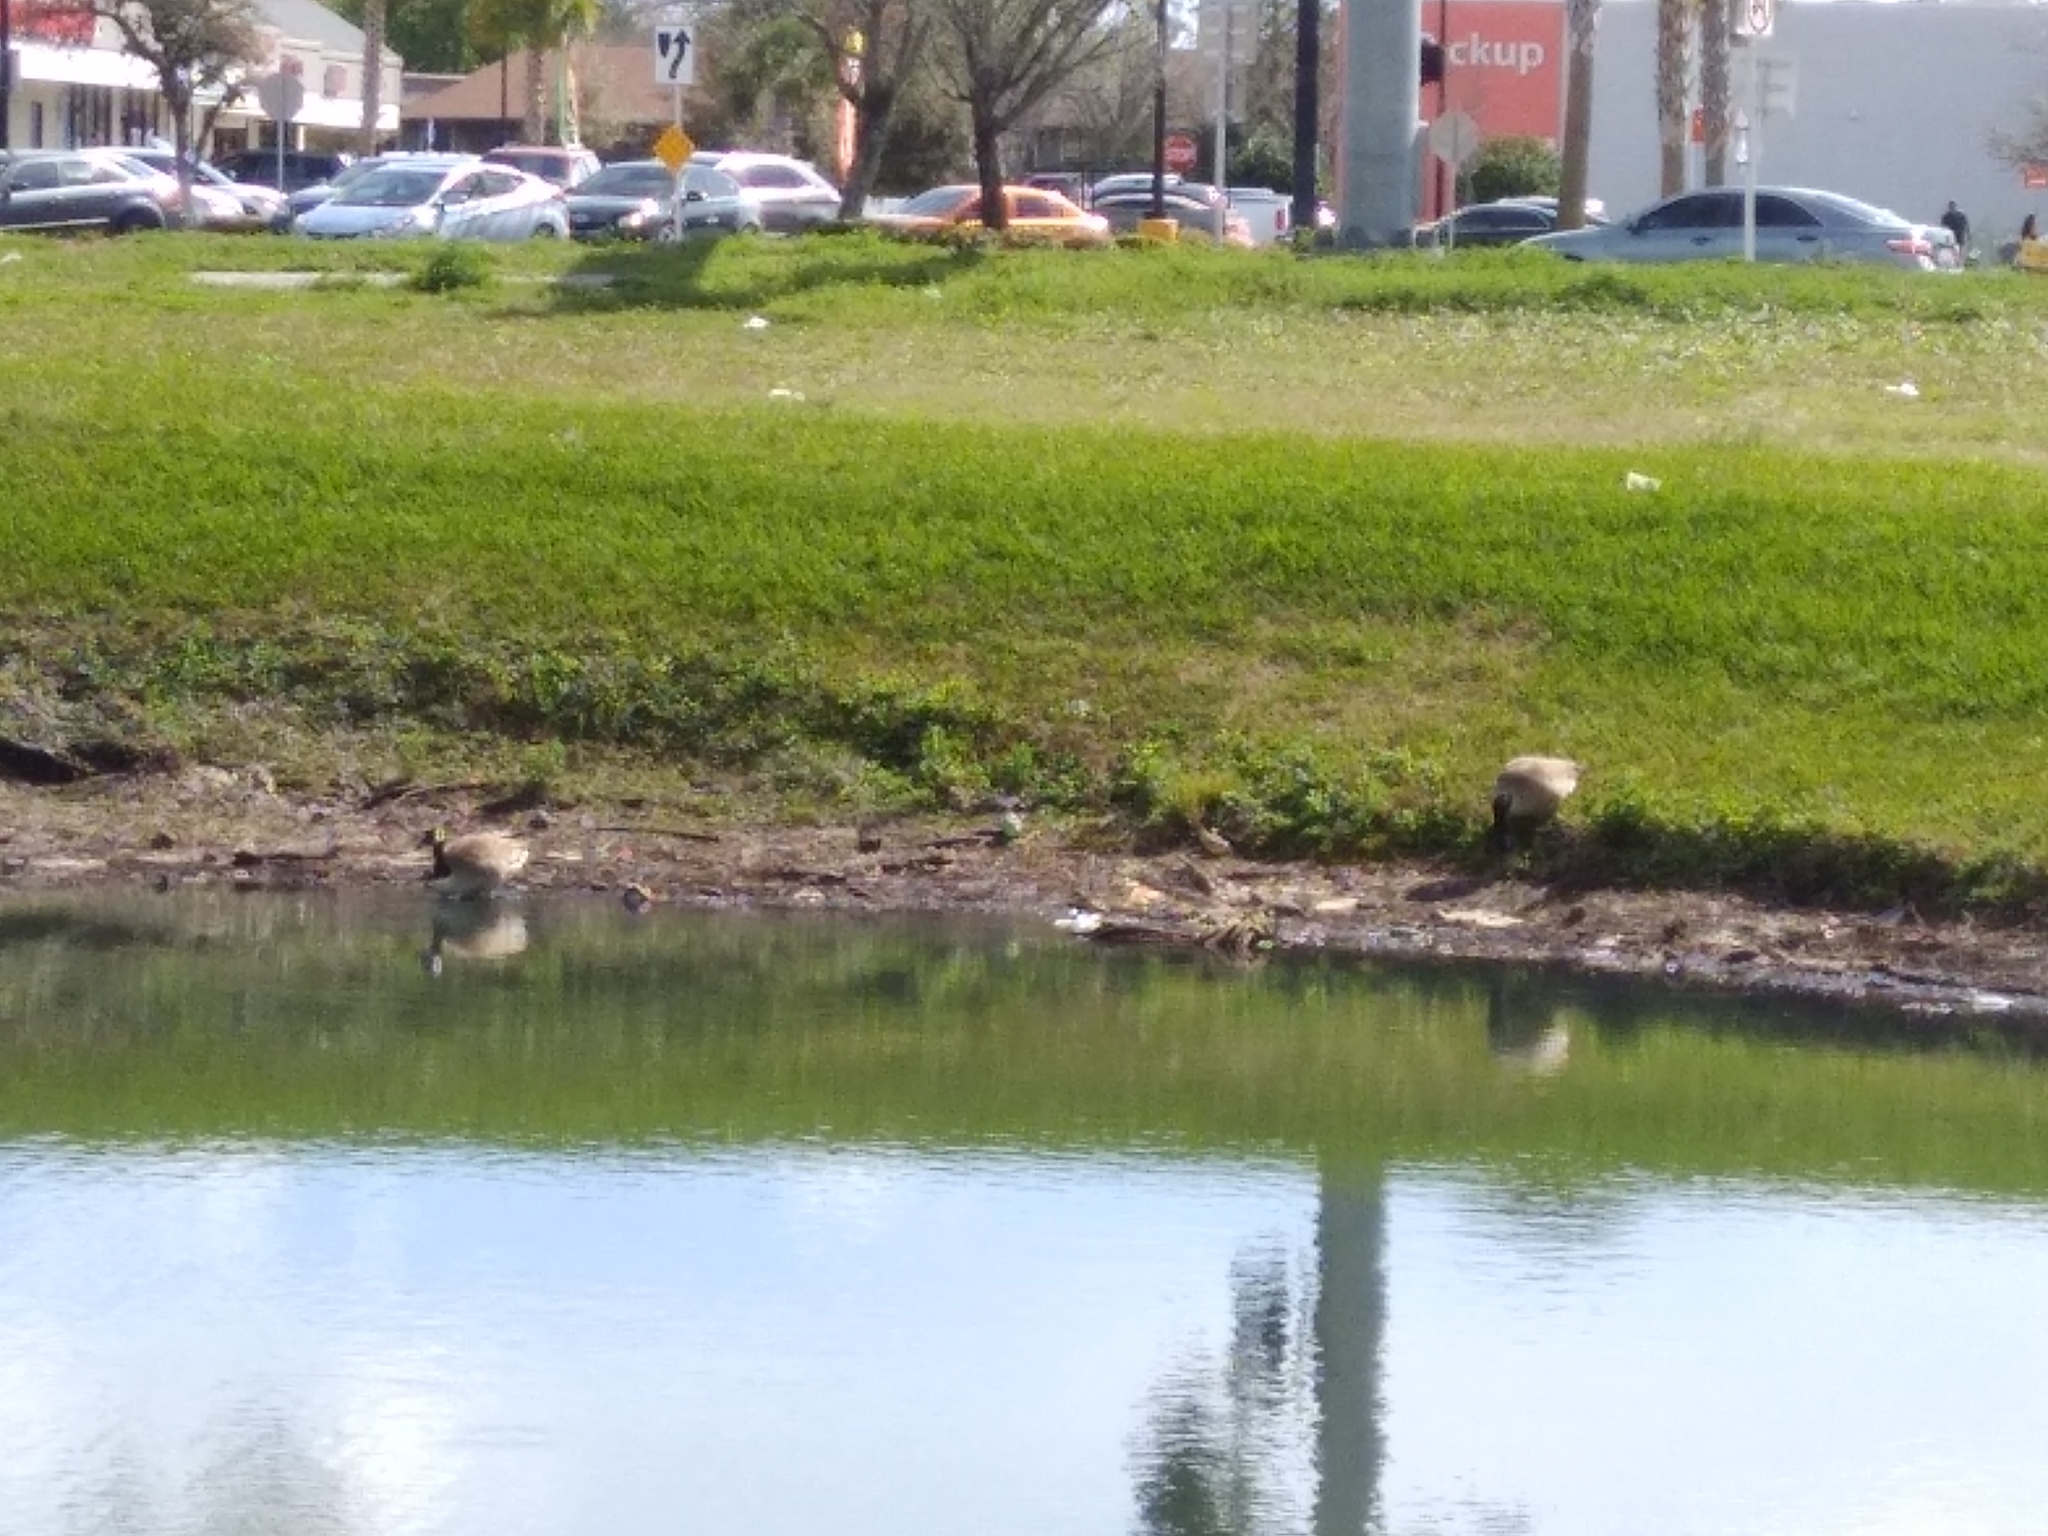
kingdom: Animalia
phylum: Chordata
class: Aves
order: Anseriformes
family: Anatidae
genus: Branta
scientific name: Branta canadensis
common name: Canada goose
